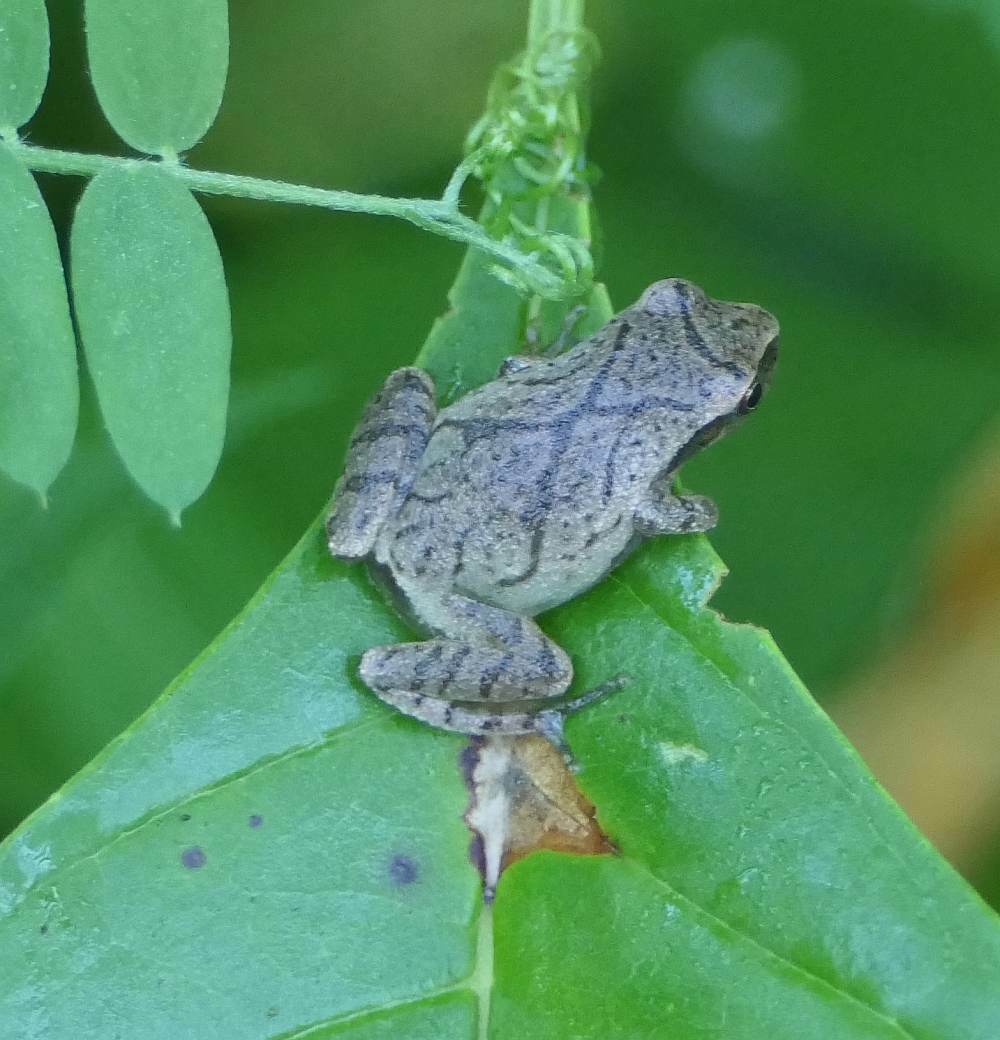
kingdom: Animalia
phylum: Chordata
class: Amphibia
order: Anura
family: Hylidae
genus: Pseudacris
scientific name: Pseudacris crucifer
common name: Spring peeper
